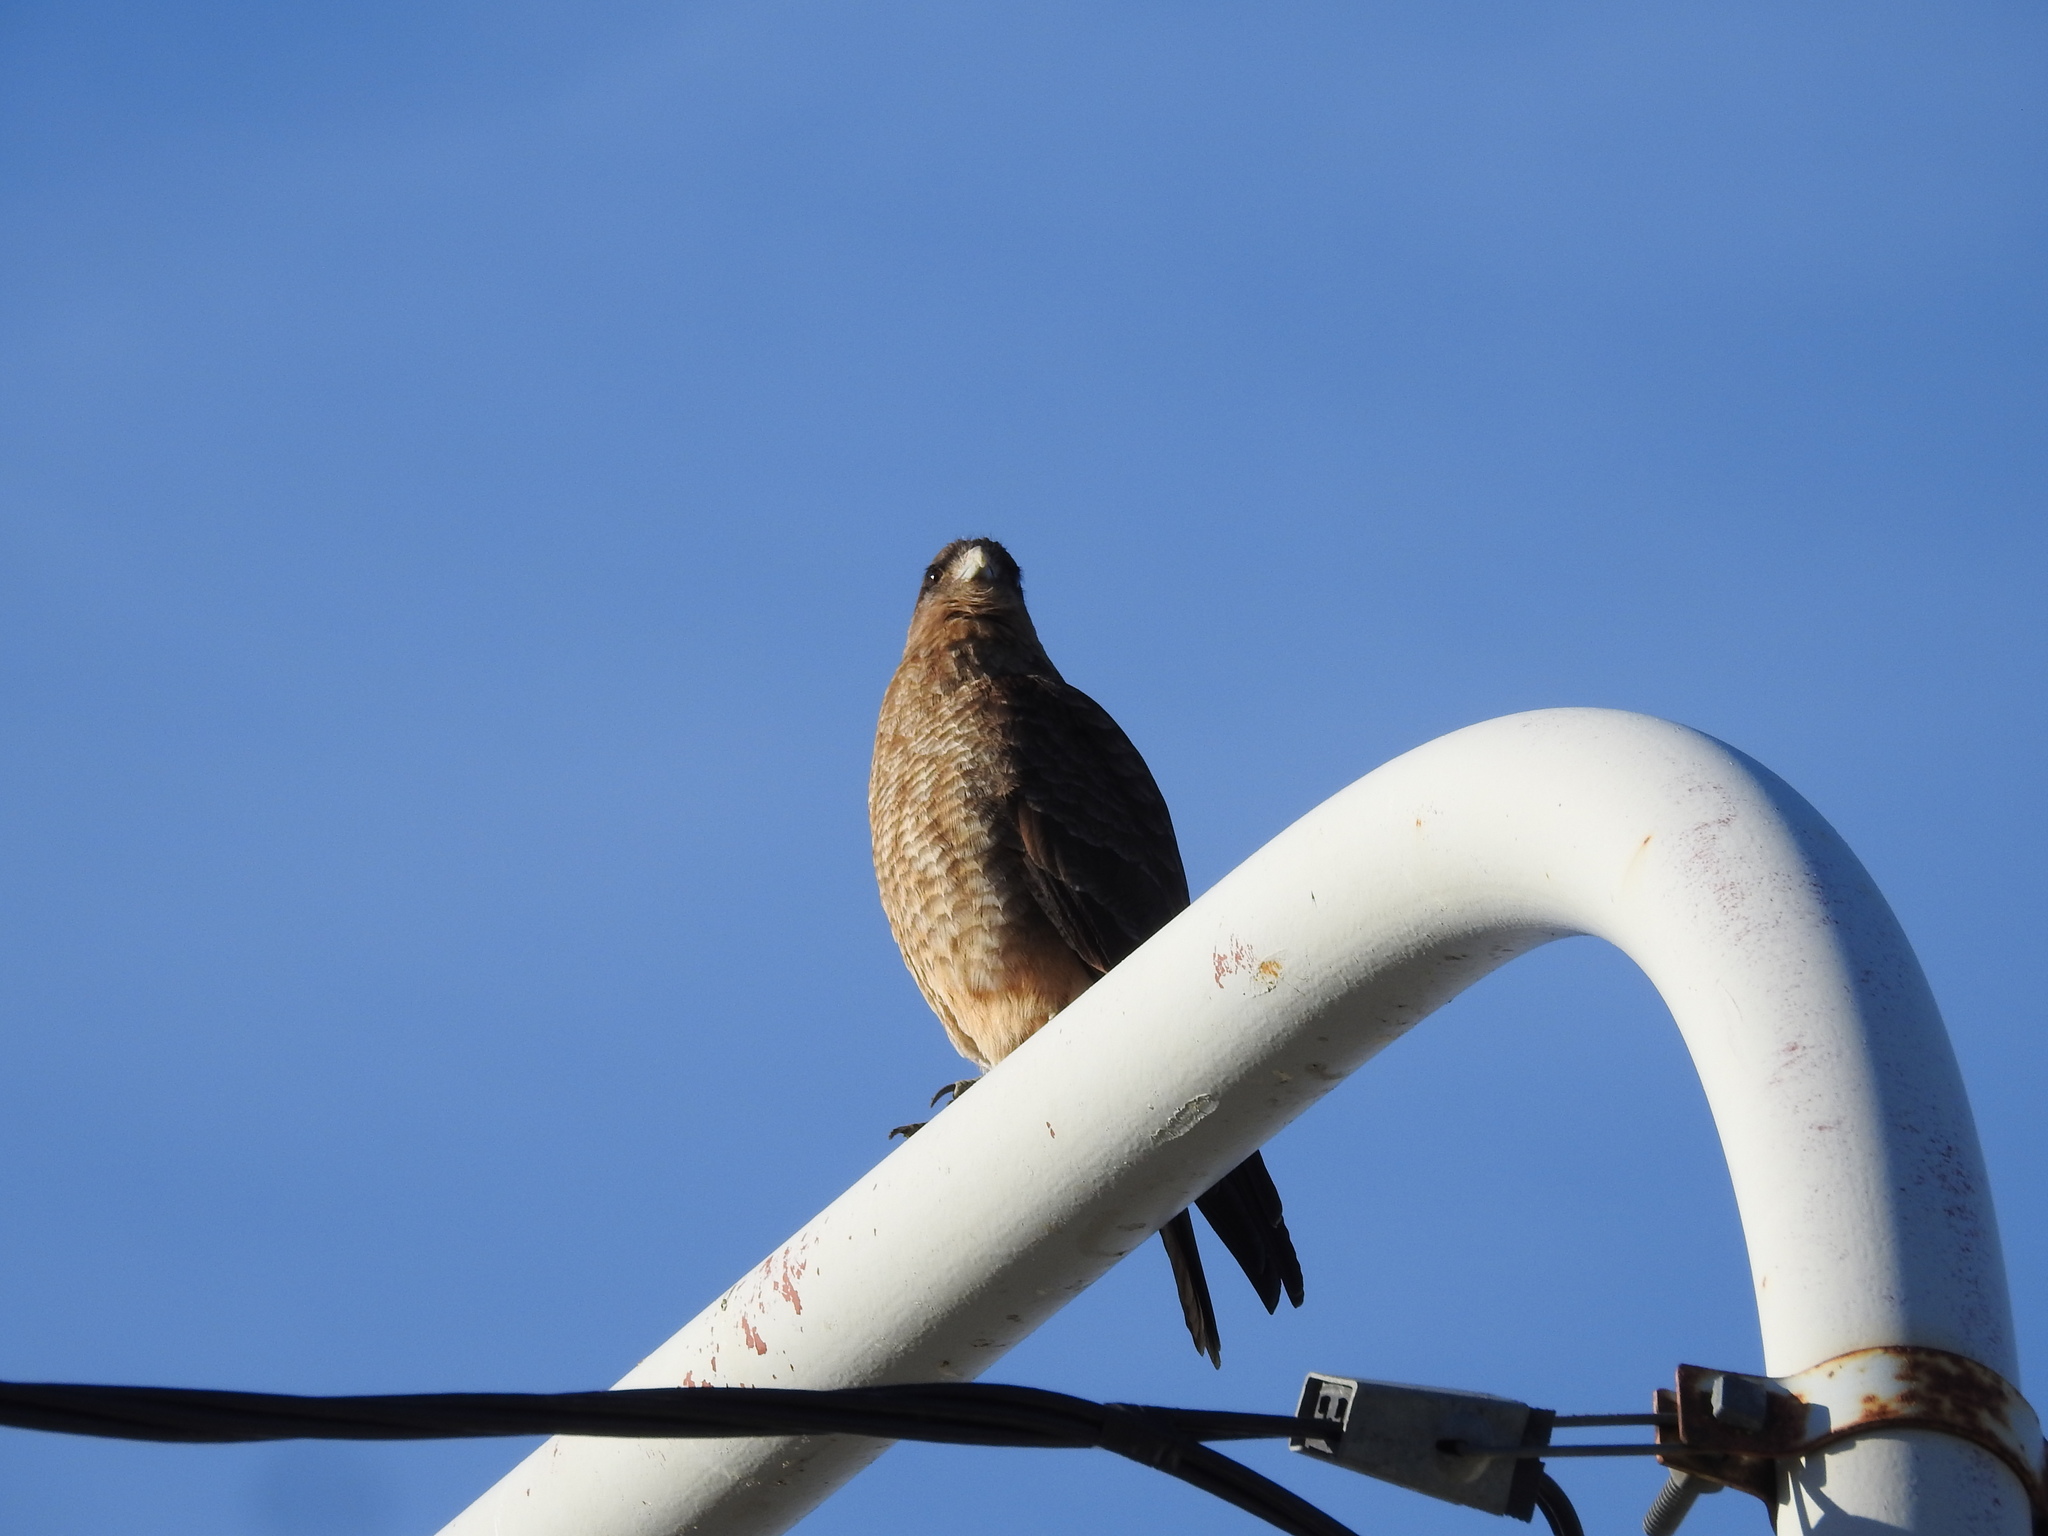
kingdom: Animalia
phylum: Chordata
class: Aves
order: Falconiformes
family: Falconidae
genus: Daptrius
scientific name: Daptrius
